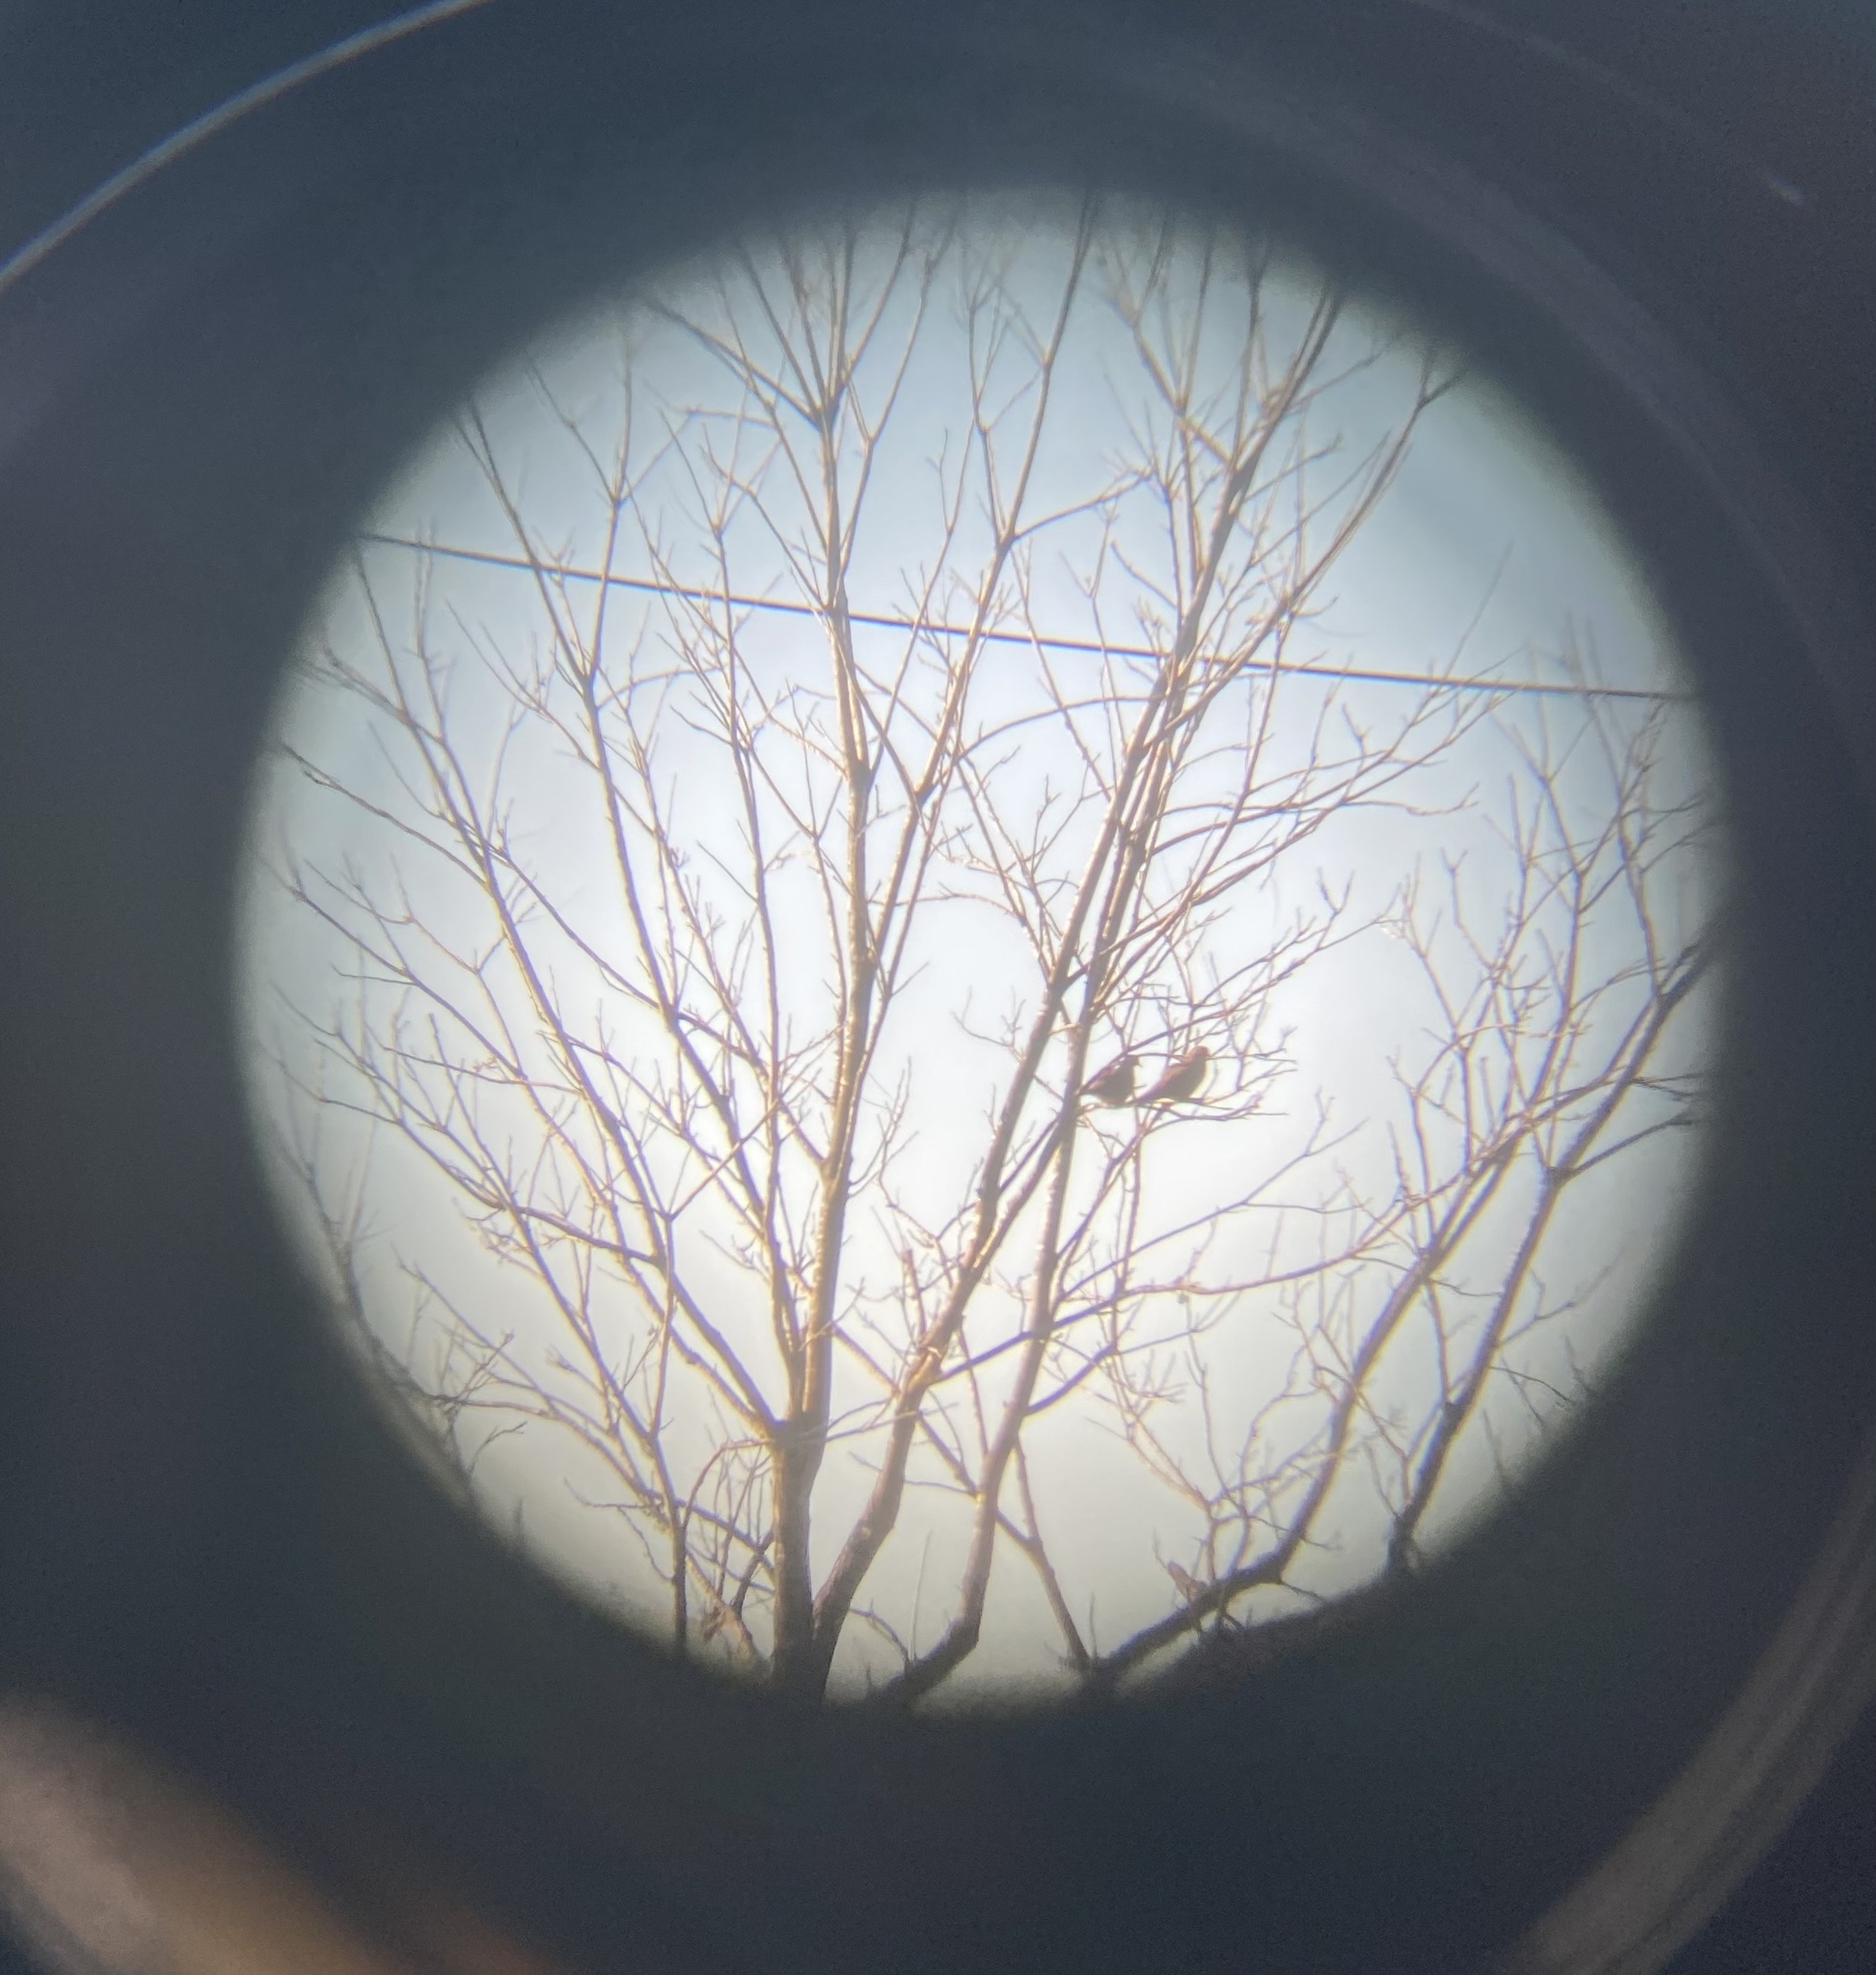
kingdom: Animalia
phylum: Chordata
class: Aves
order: Columbiformes
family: Columbidae
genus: Zenaida
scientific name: Zenaida macroura
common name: Mourning dove
